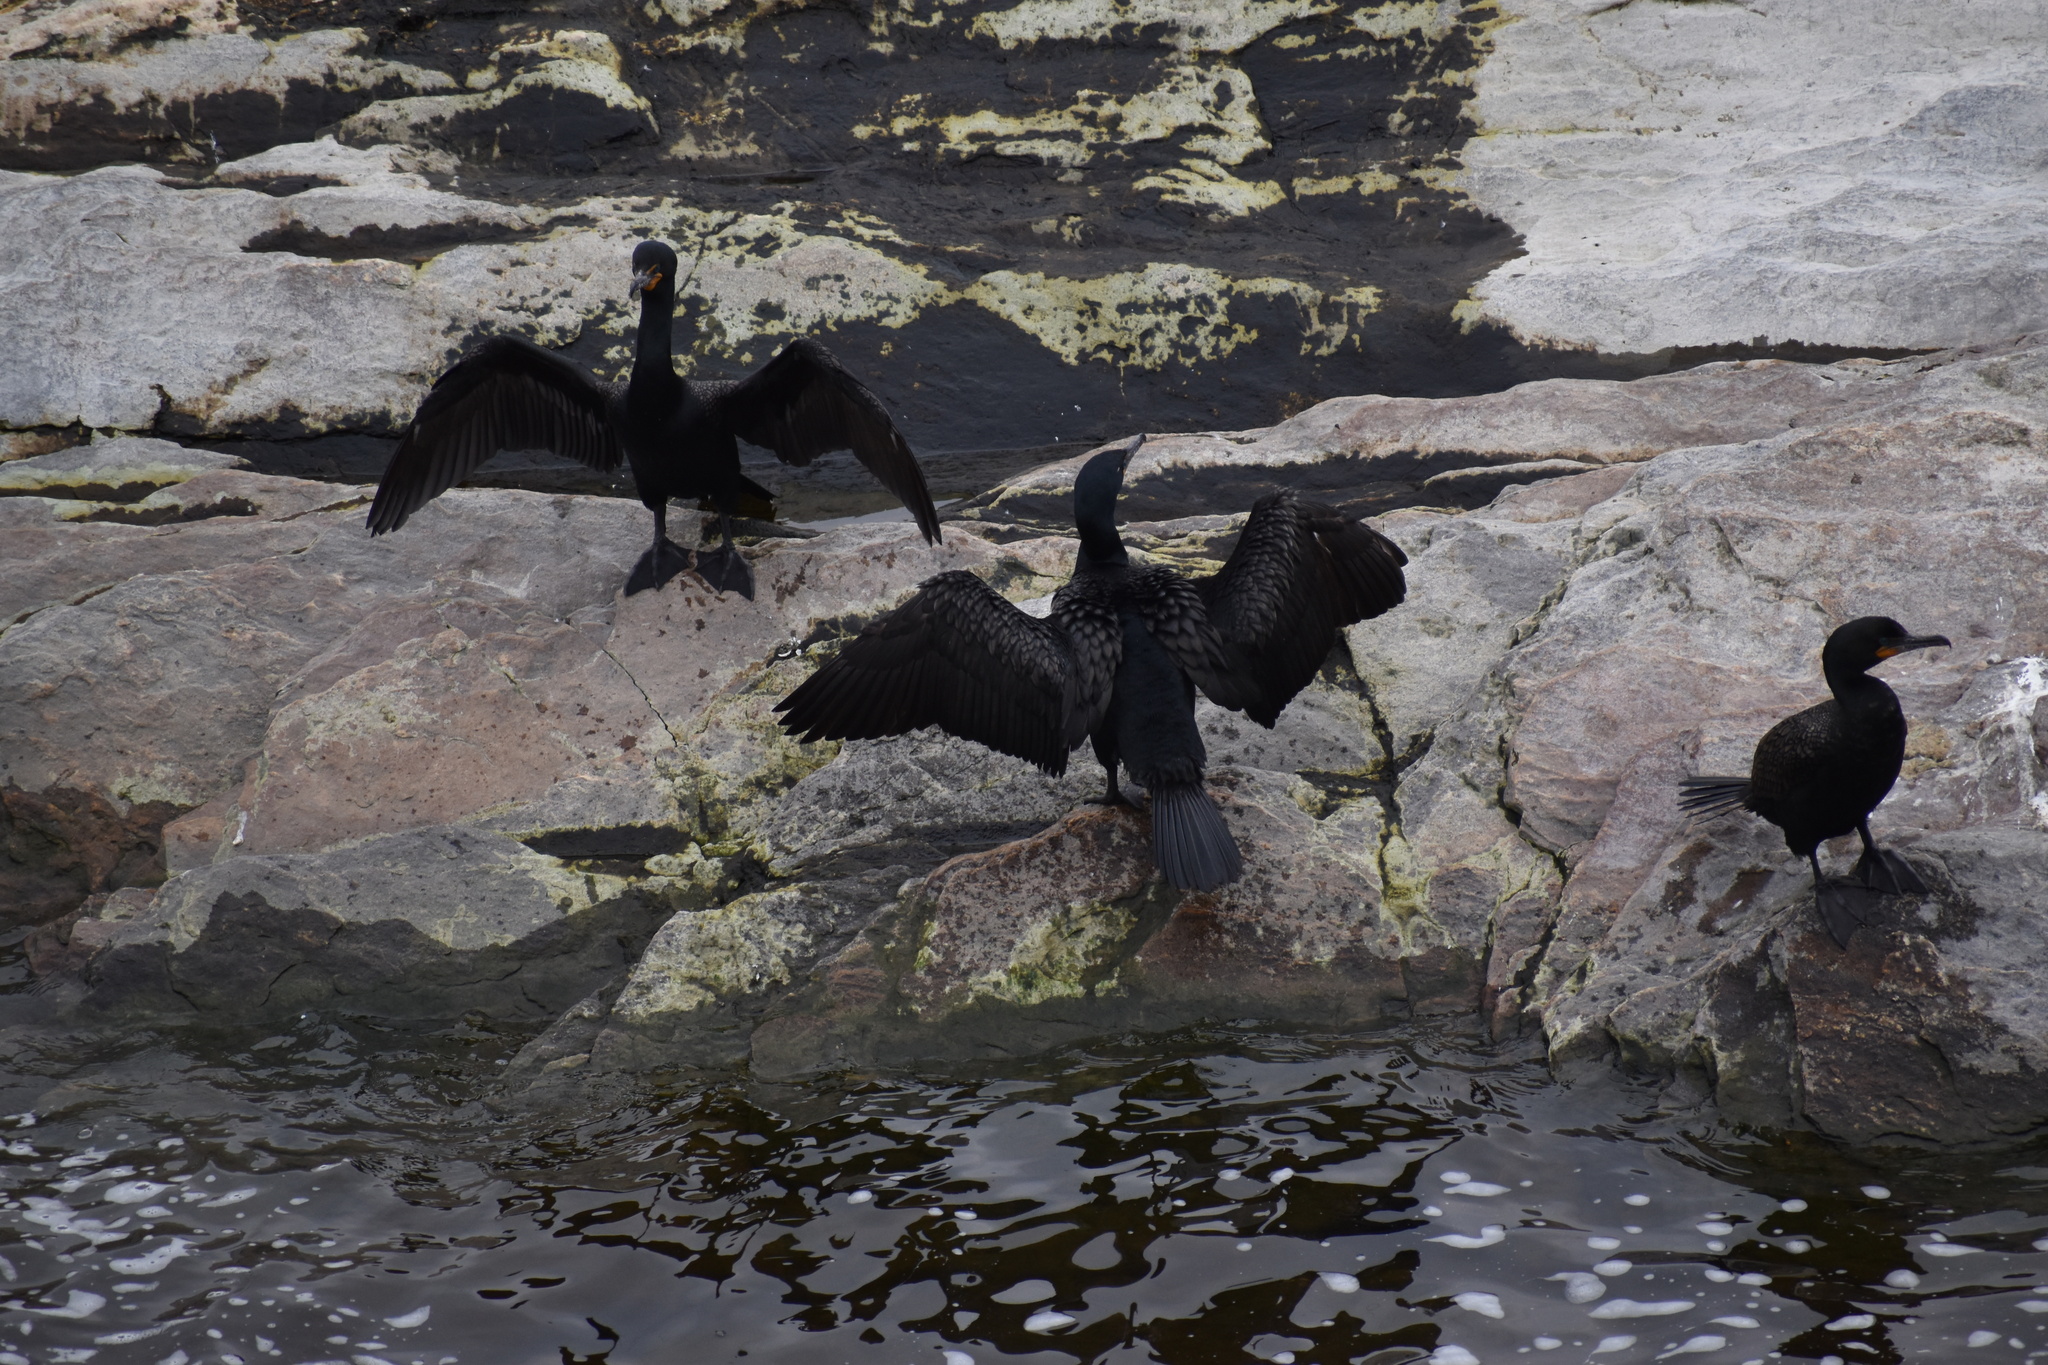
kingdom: Animalia
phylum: Chordata
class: Aves
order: Suliformes
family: Phalacrocoracidae
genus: Phalacrocorax
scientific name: Phalacrocorax auritus
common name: Double-crested cormorant
